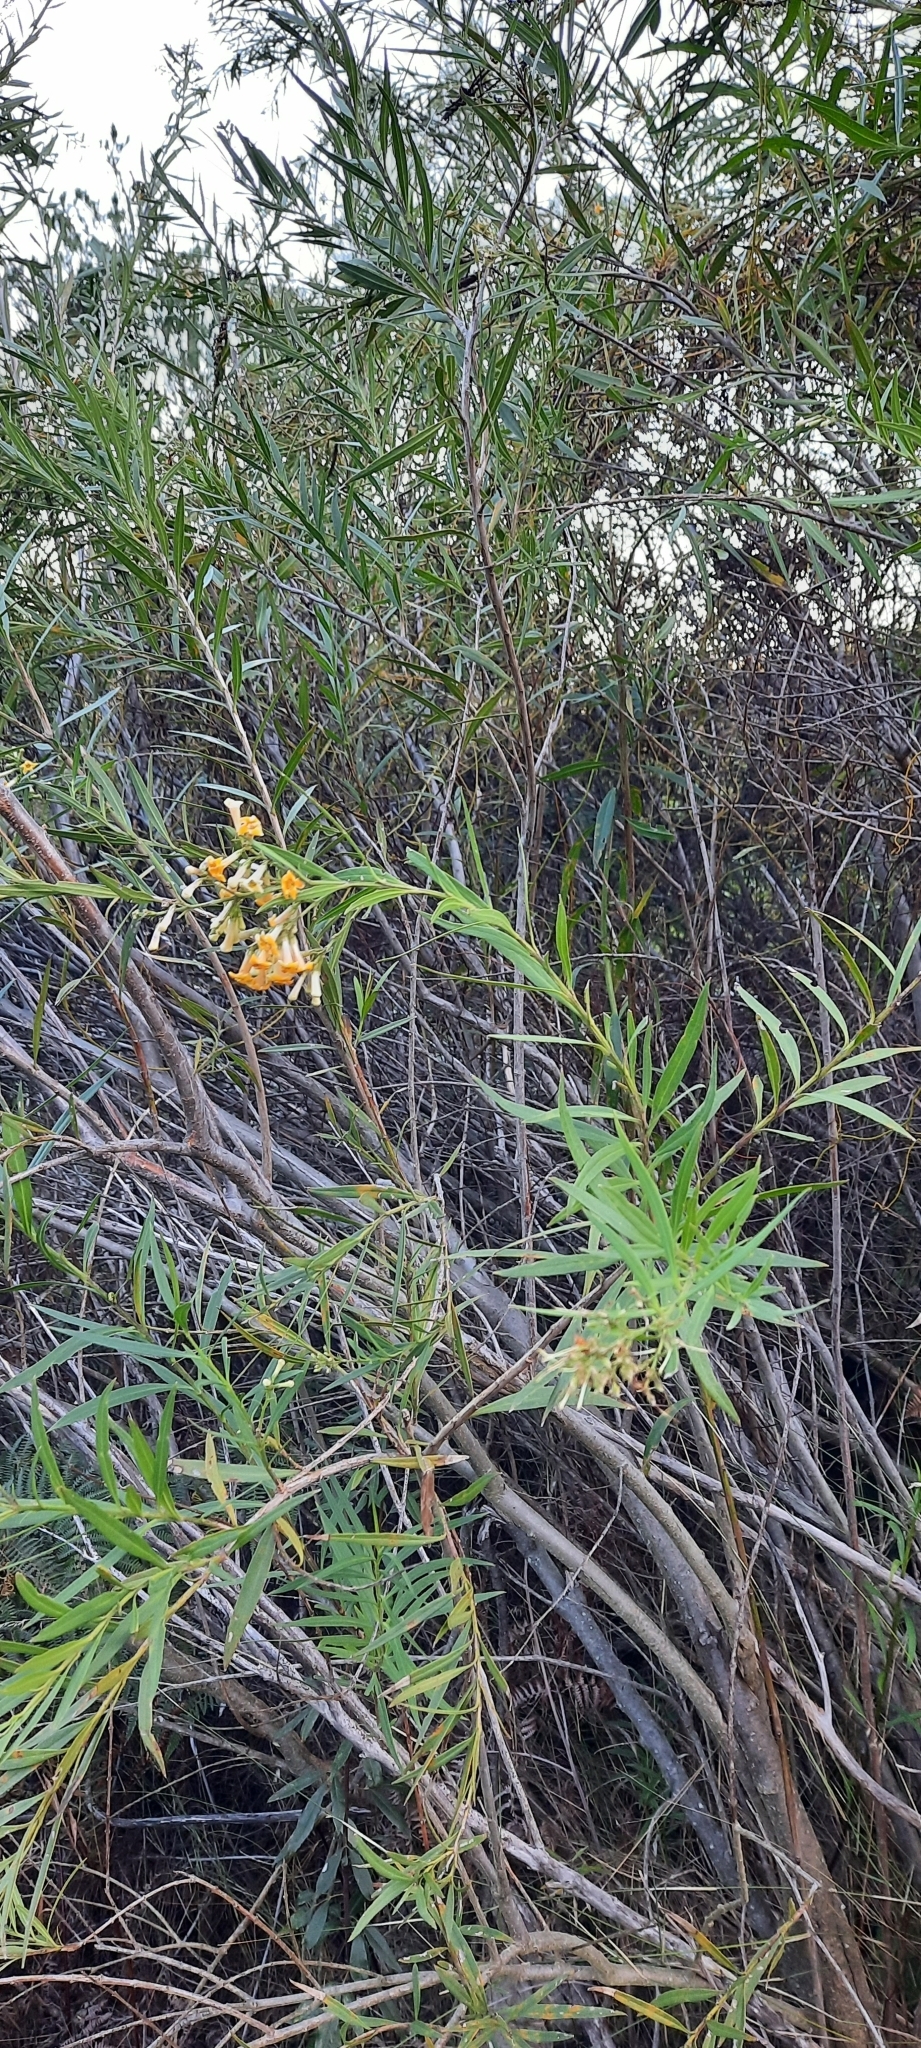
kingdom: Plantae
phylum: Tracheophyta
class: Magnoliopsida
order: Lamiales
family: Scrophulariaceae
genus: Freylinia
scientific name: Freylinia lanceolata
